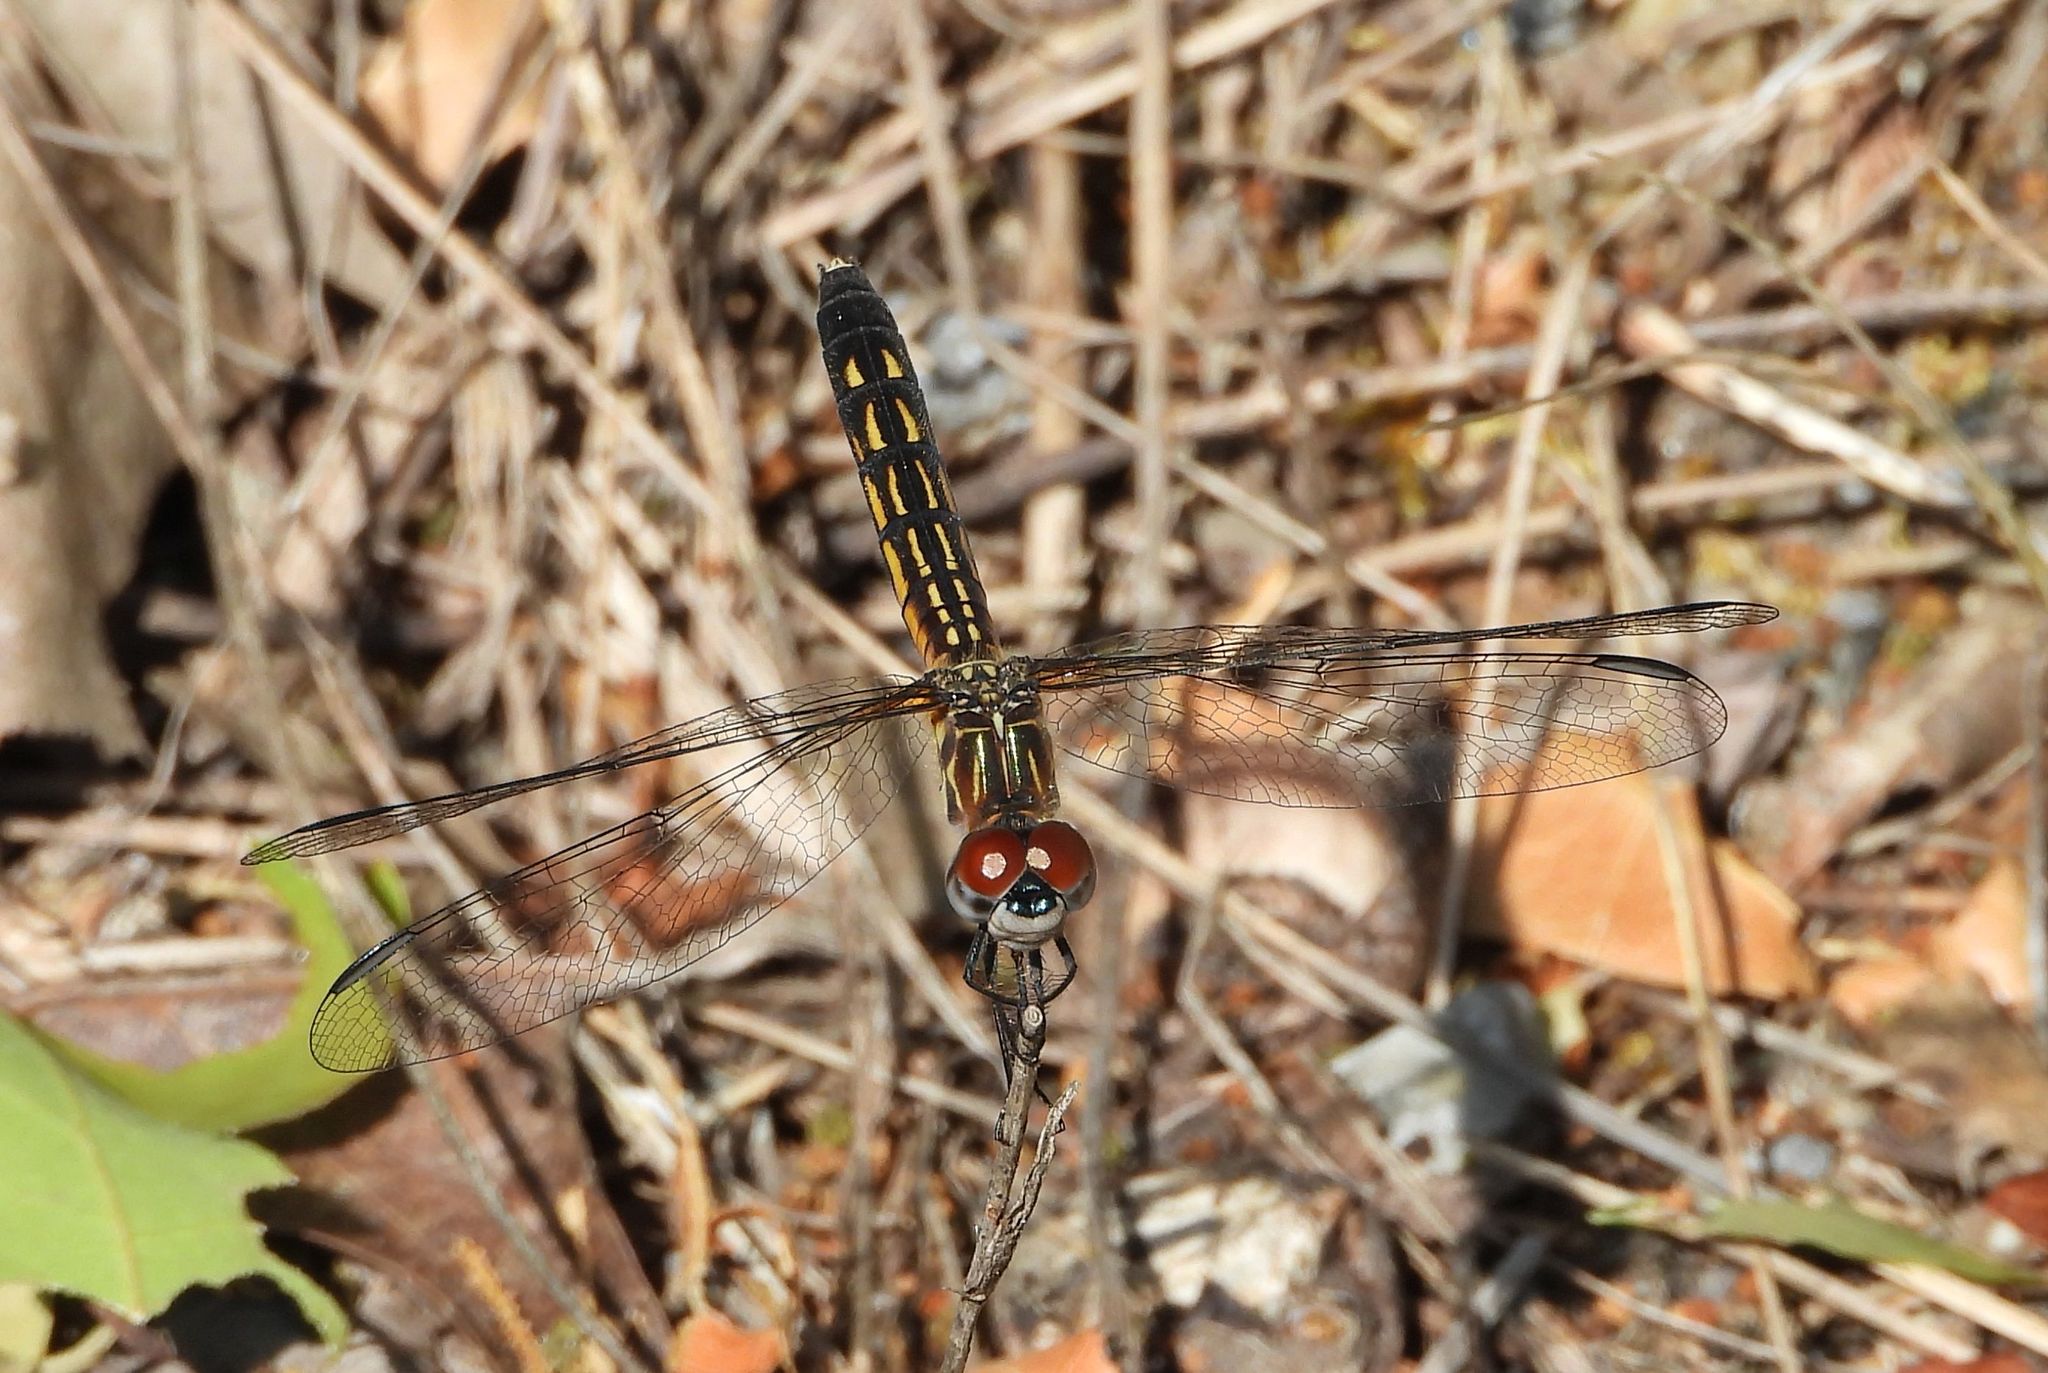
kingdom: Animalia
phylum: Arthropoda
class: Insecta
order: Odonata
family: Libellulidae
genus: Pachydiplax
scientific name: Pachydiplax longipennis
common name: Blue dasher
